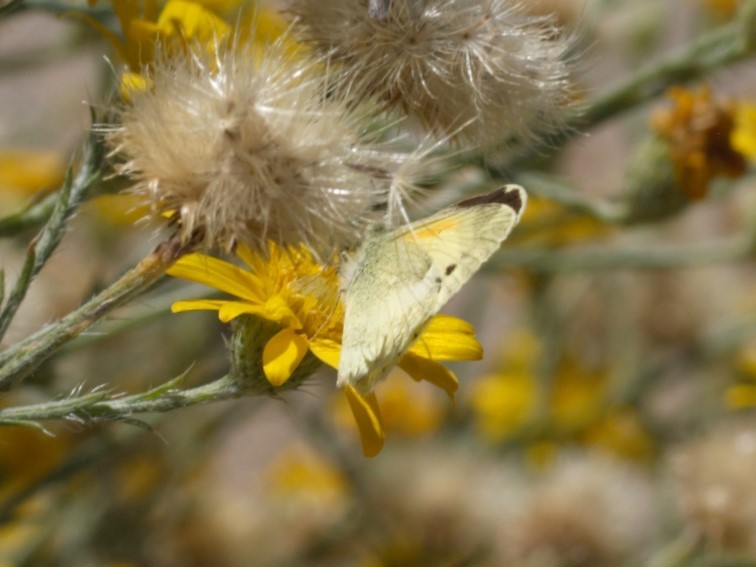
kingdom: Animalia
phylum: Arthropoda
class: Insecta
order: Lepidoptera
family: Pieridae
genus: Nathalis
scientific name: Nathalis iole
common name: Dainty sulphur
